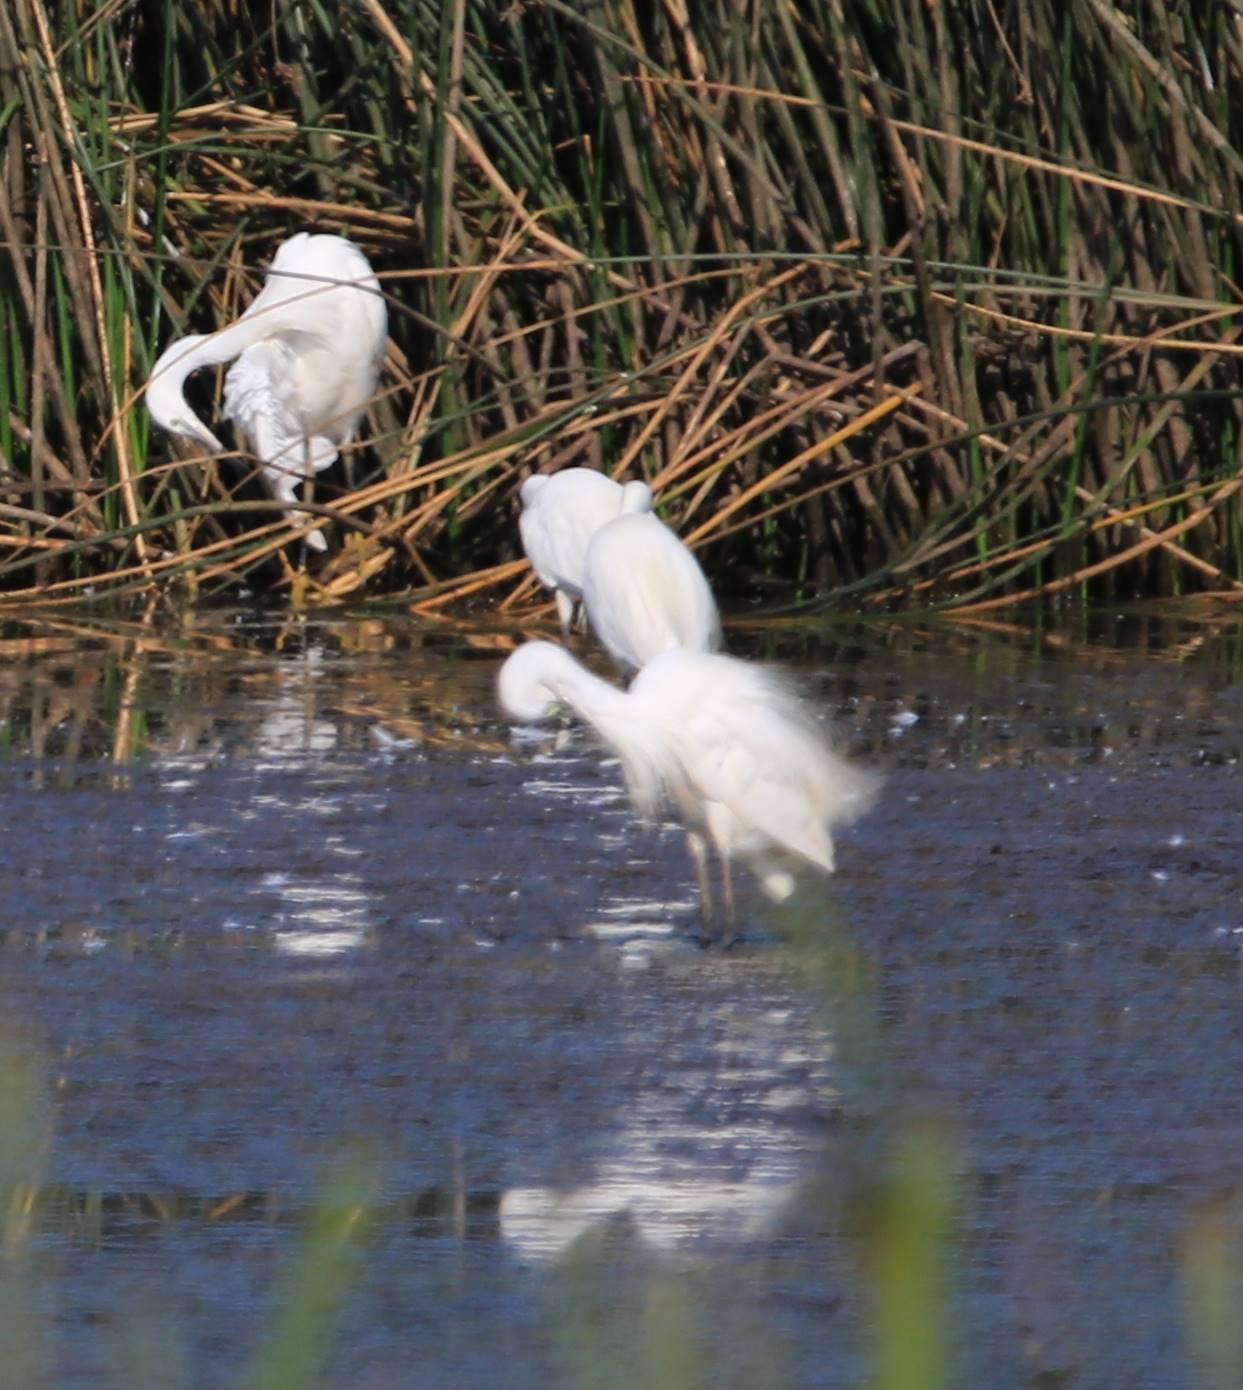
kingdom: Animalia
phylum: Chordata
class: Aves
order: Pelecaniformes
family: Ardeidae
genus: Egretta
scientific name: Egretta garzetta
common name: Little egret
